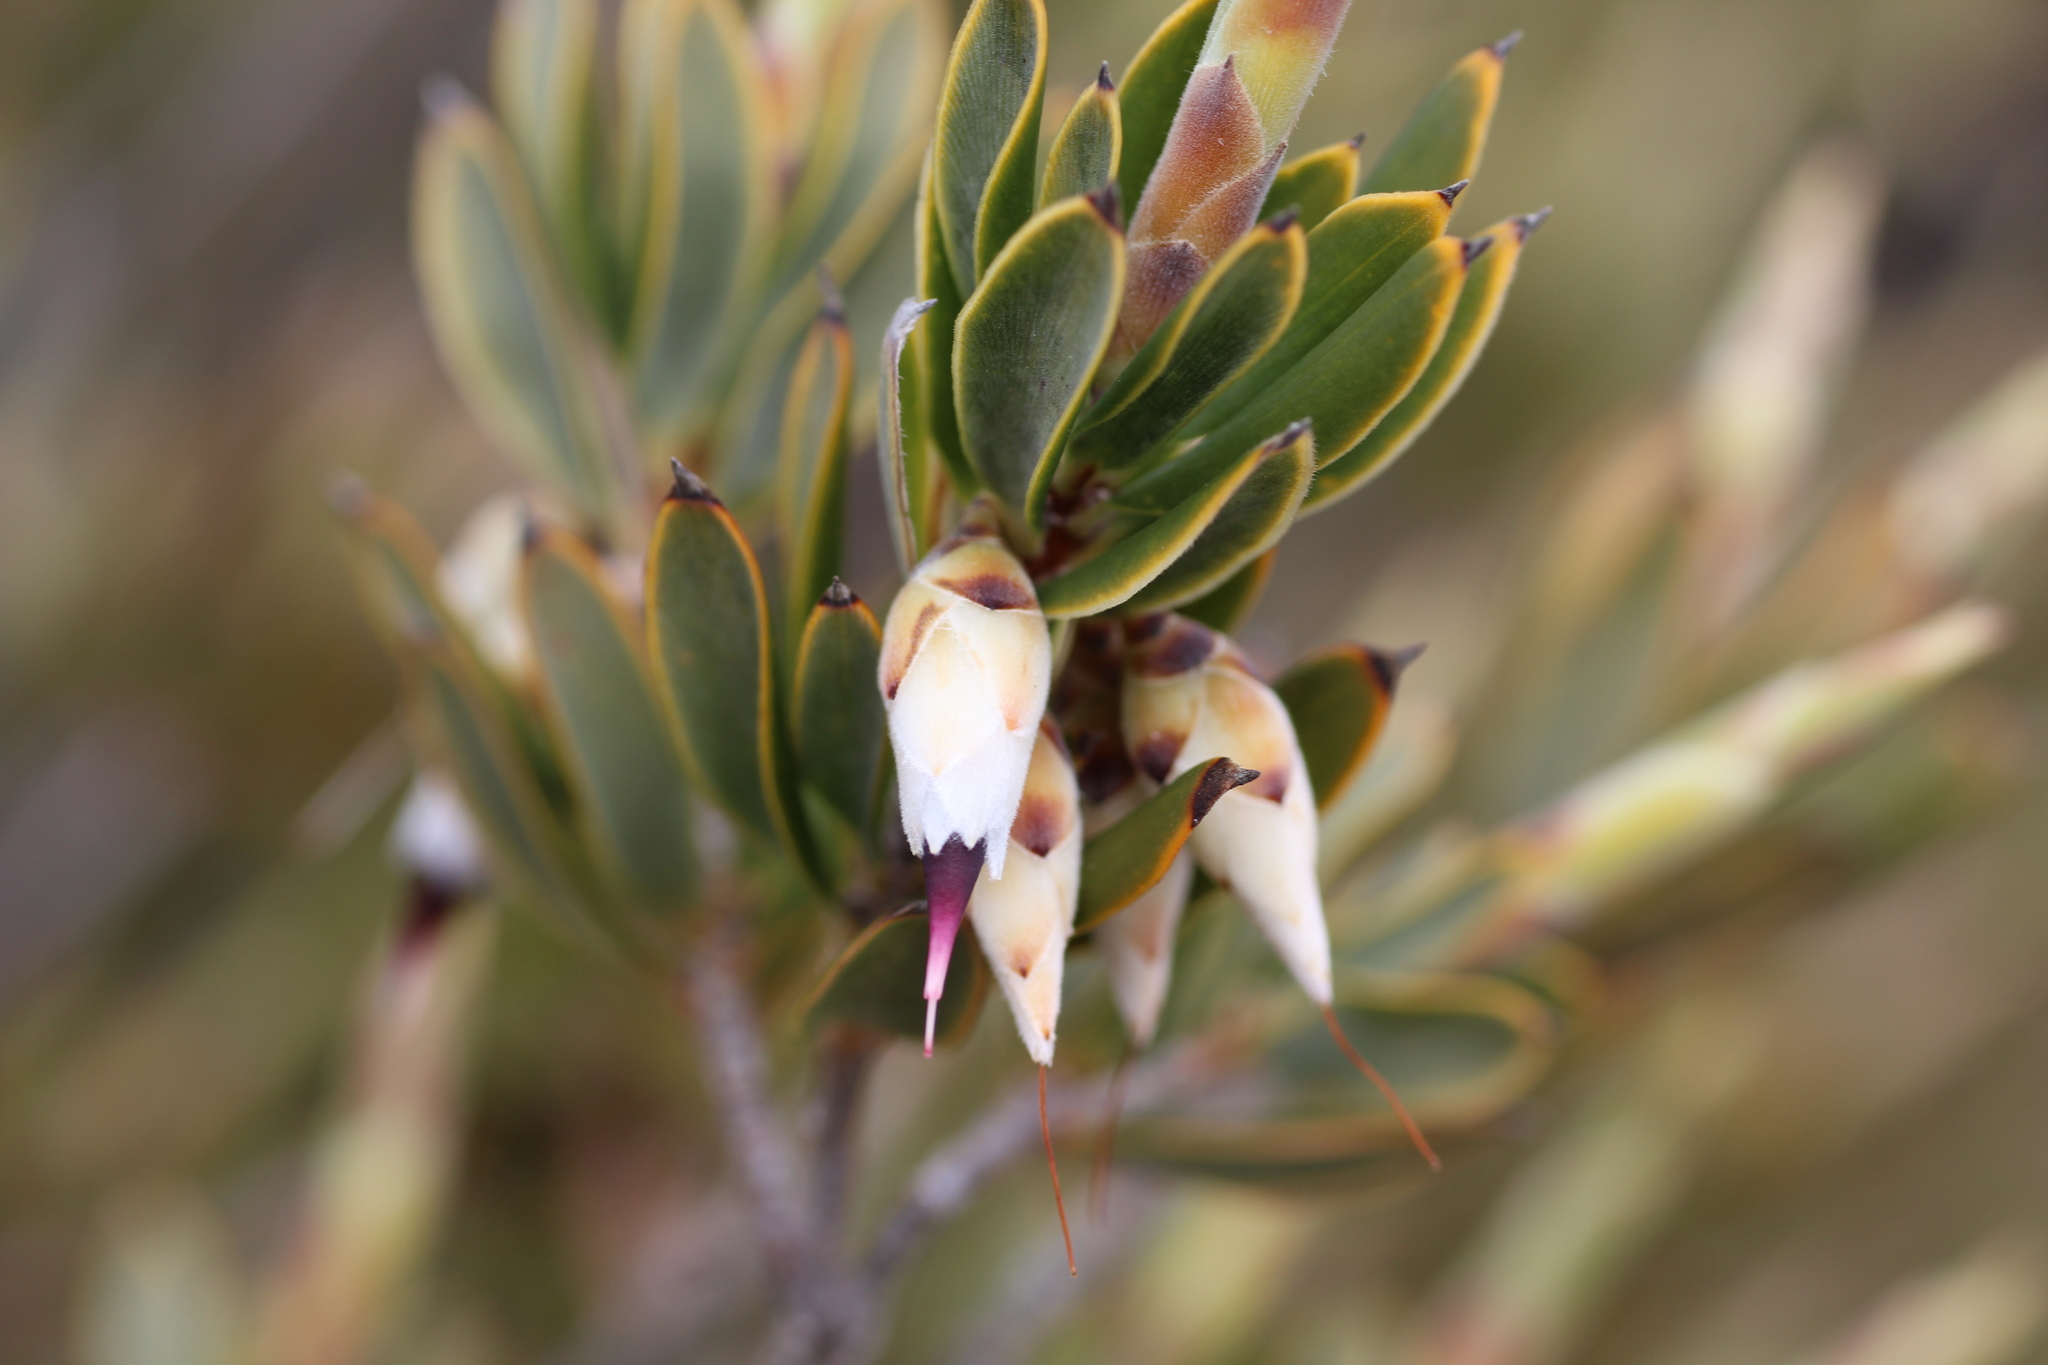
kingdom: Plantae
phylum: Tracheophyta
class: Magnoliopsida
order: Ericales
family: Ericaceae
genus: Conostephium
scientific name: Conostephium pendulum
